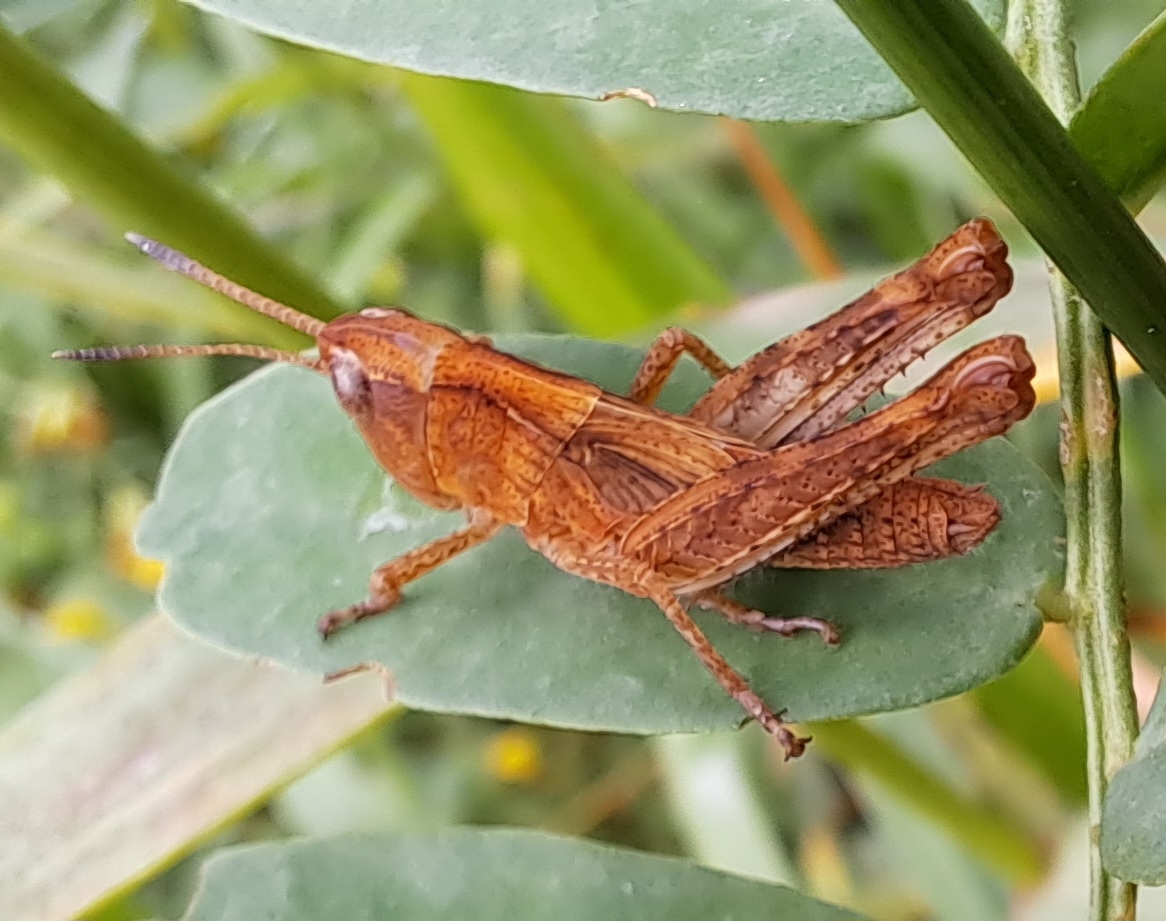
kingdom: Animalia
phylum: Arthropoda
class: Insecta
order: Orthoptera
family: Acrididae
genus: Gomphocerippus
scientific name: Gomphocerippus rufus
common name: Rufous grasshopper
